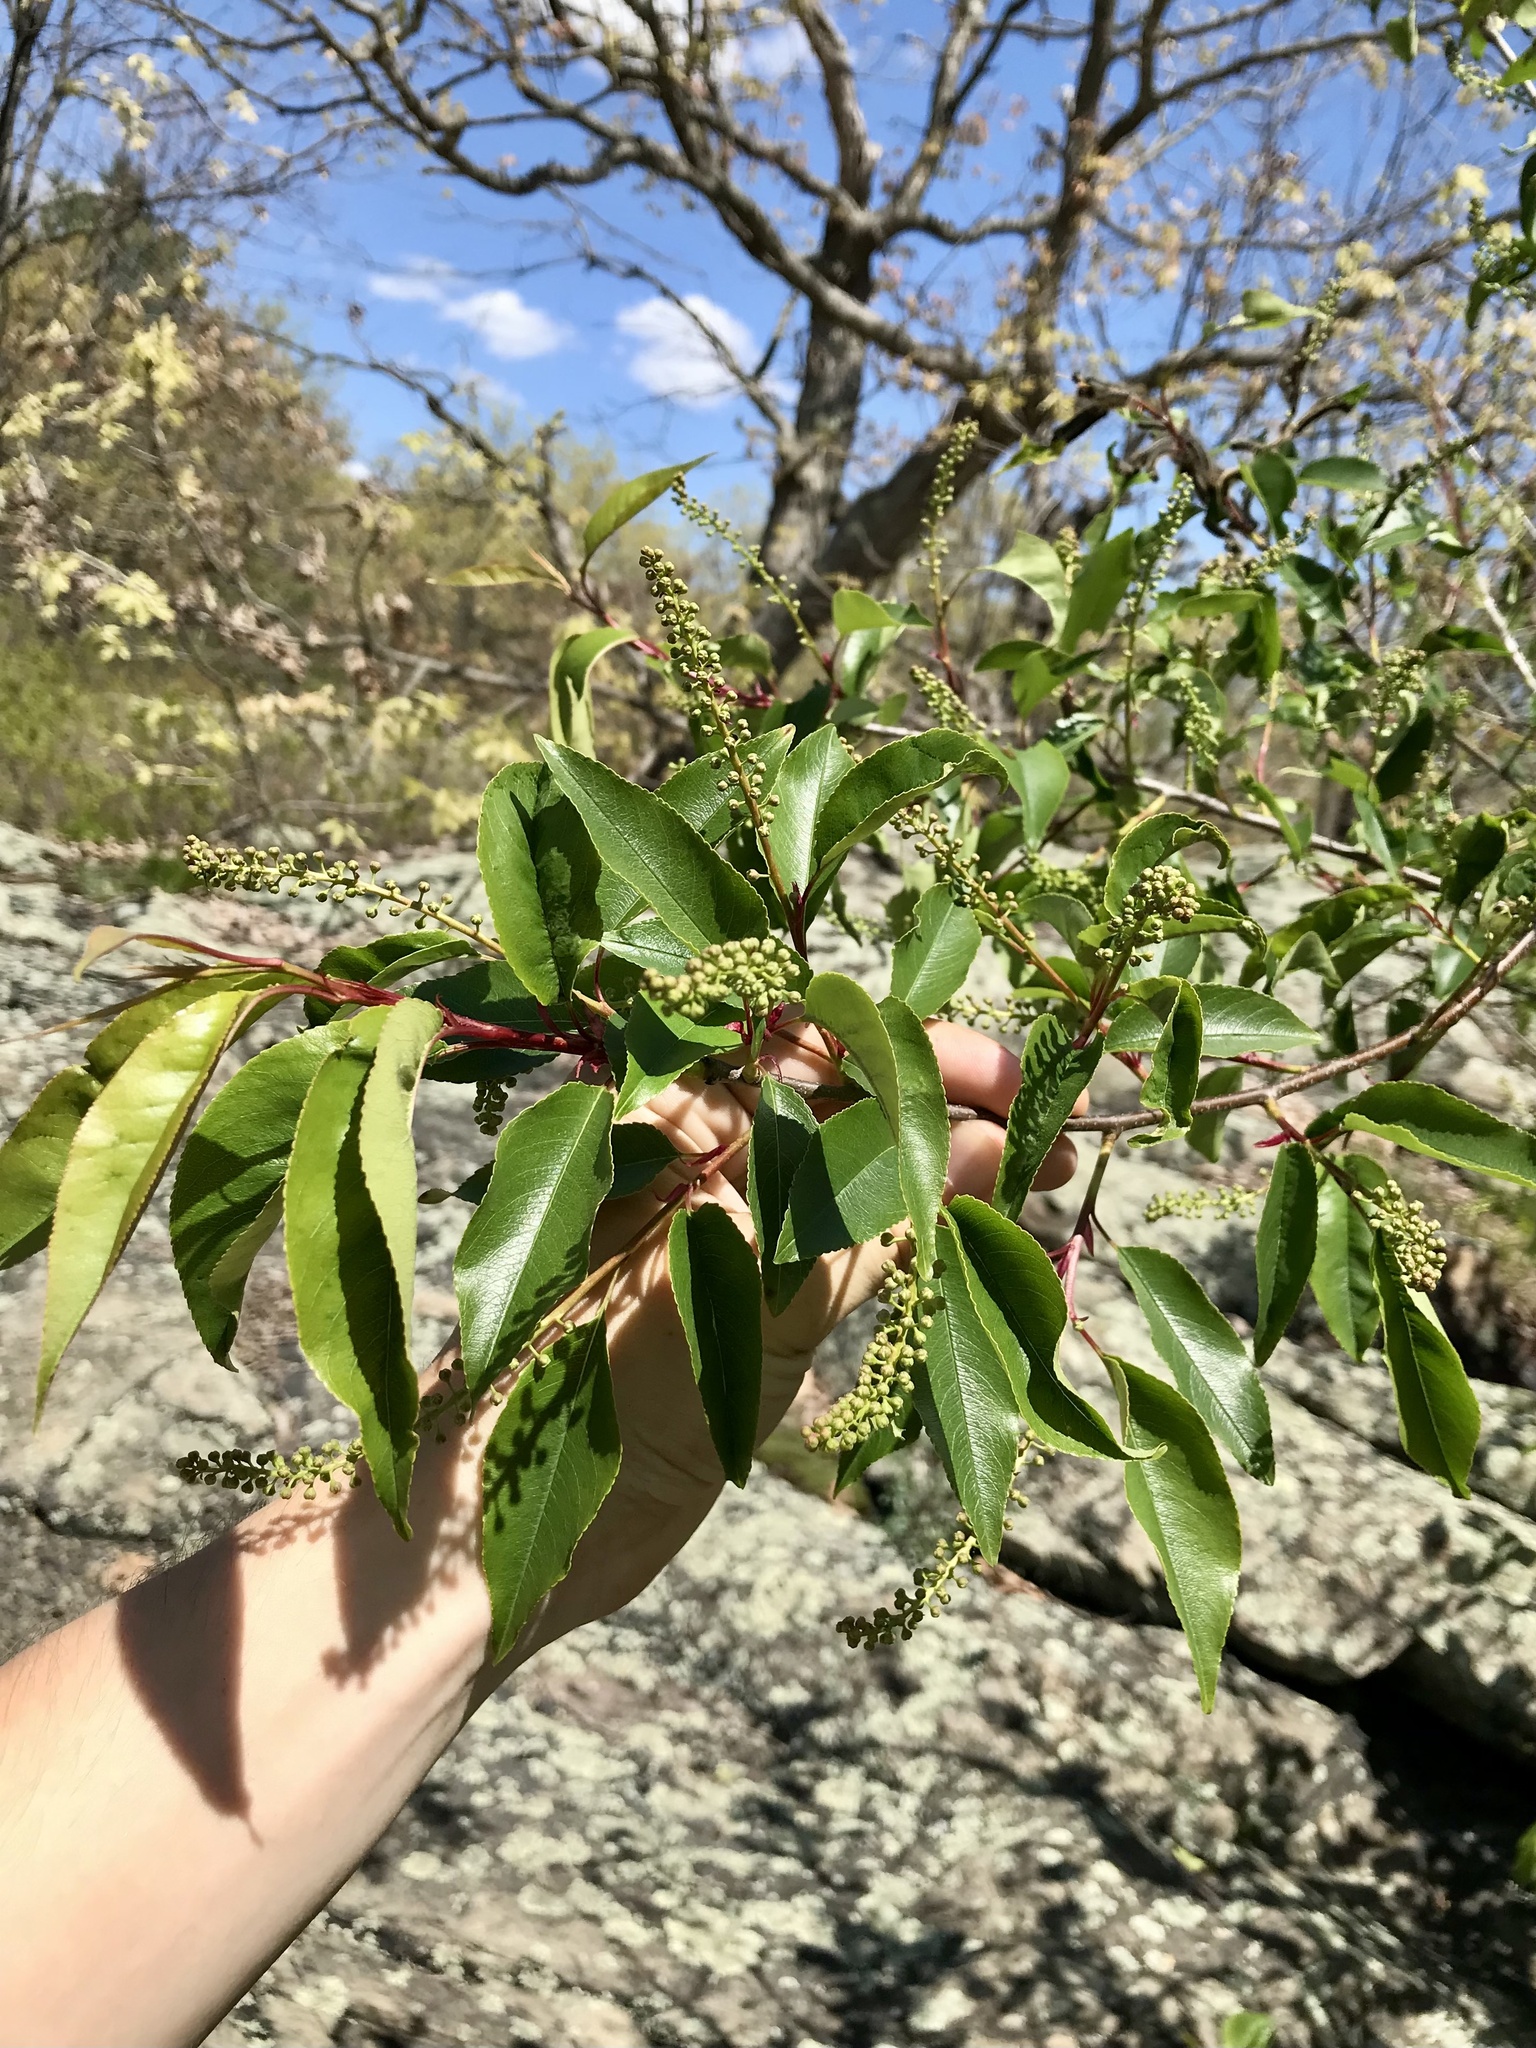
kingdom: Plantae
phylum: Tracheophyta
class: Magnoliopsida
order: Rosales
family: Rosaceae
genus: Prunus
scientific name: Prunus serotina
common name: Black cherry
